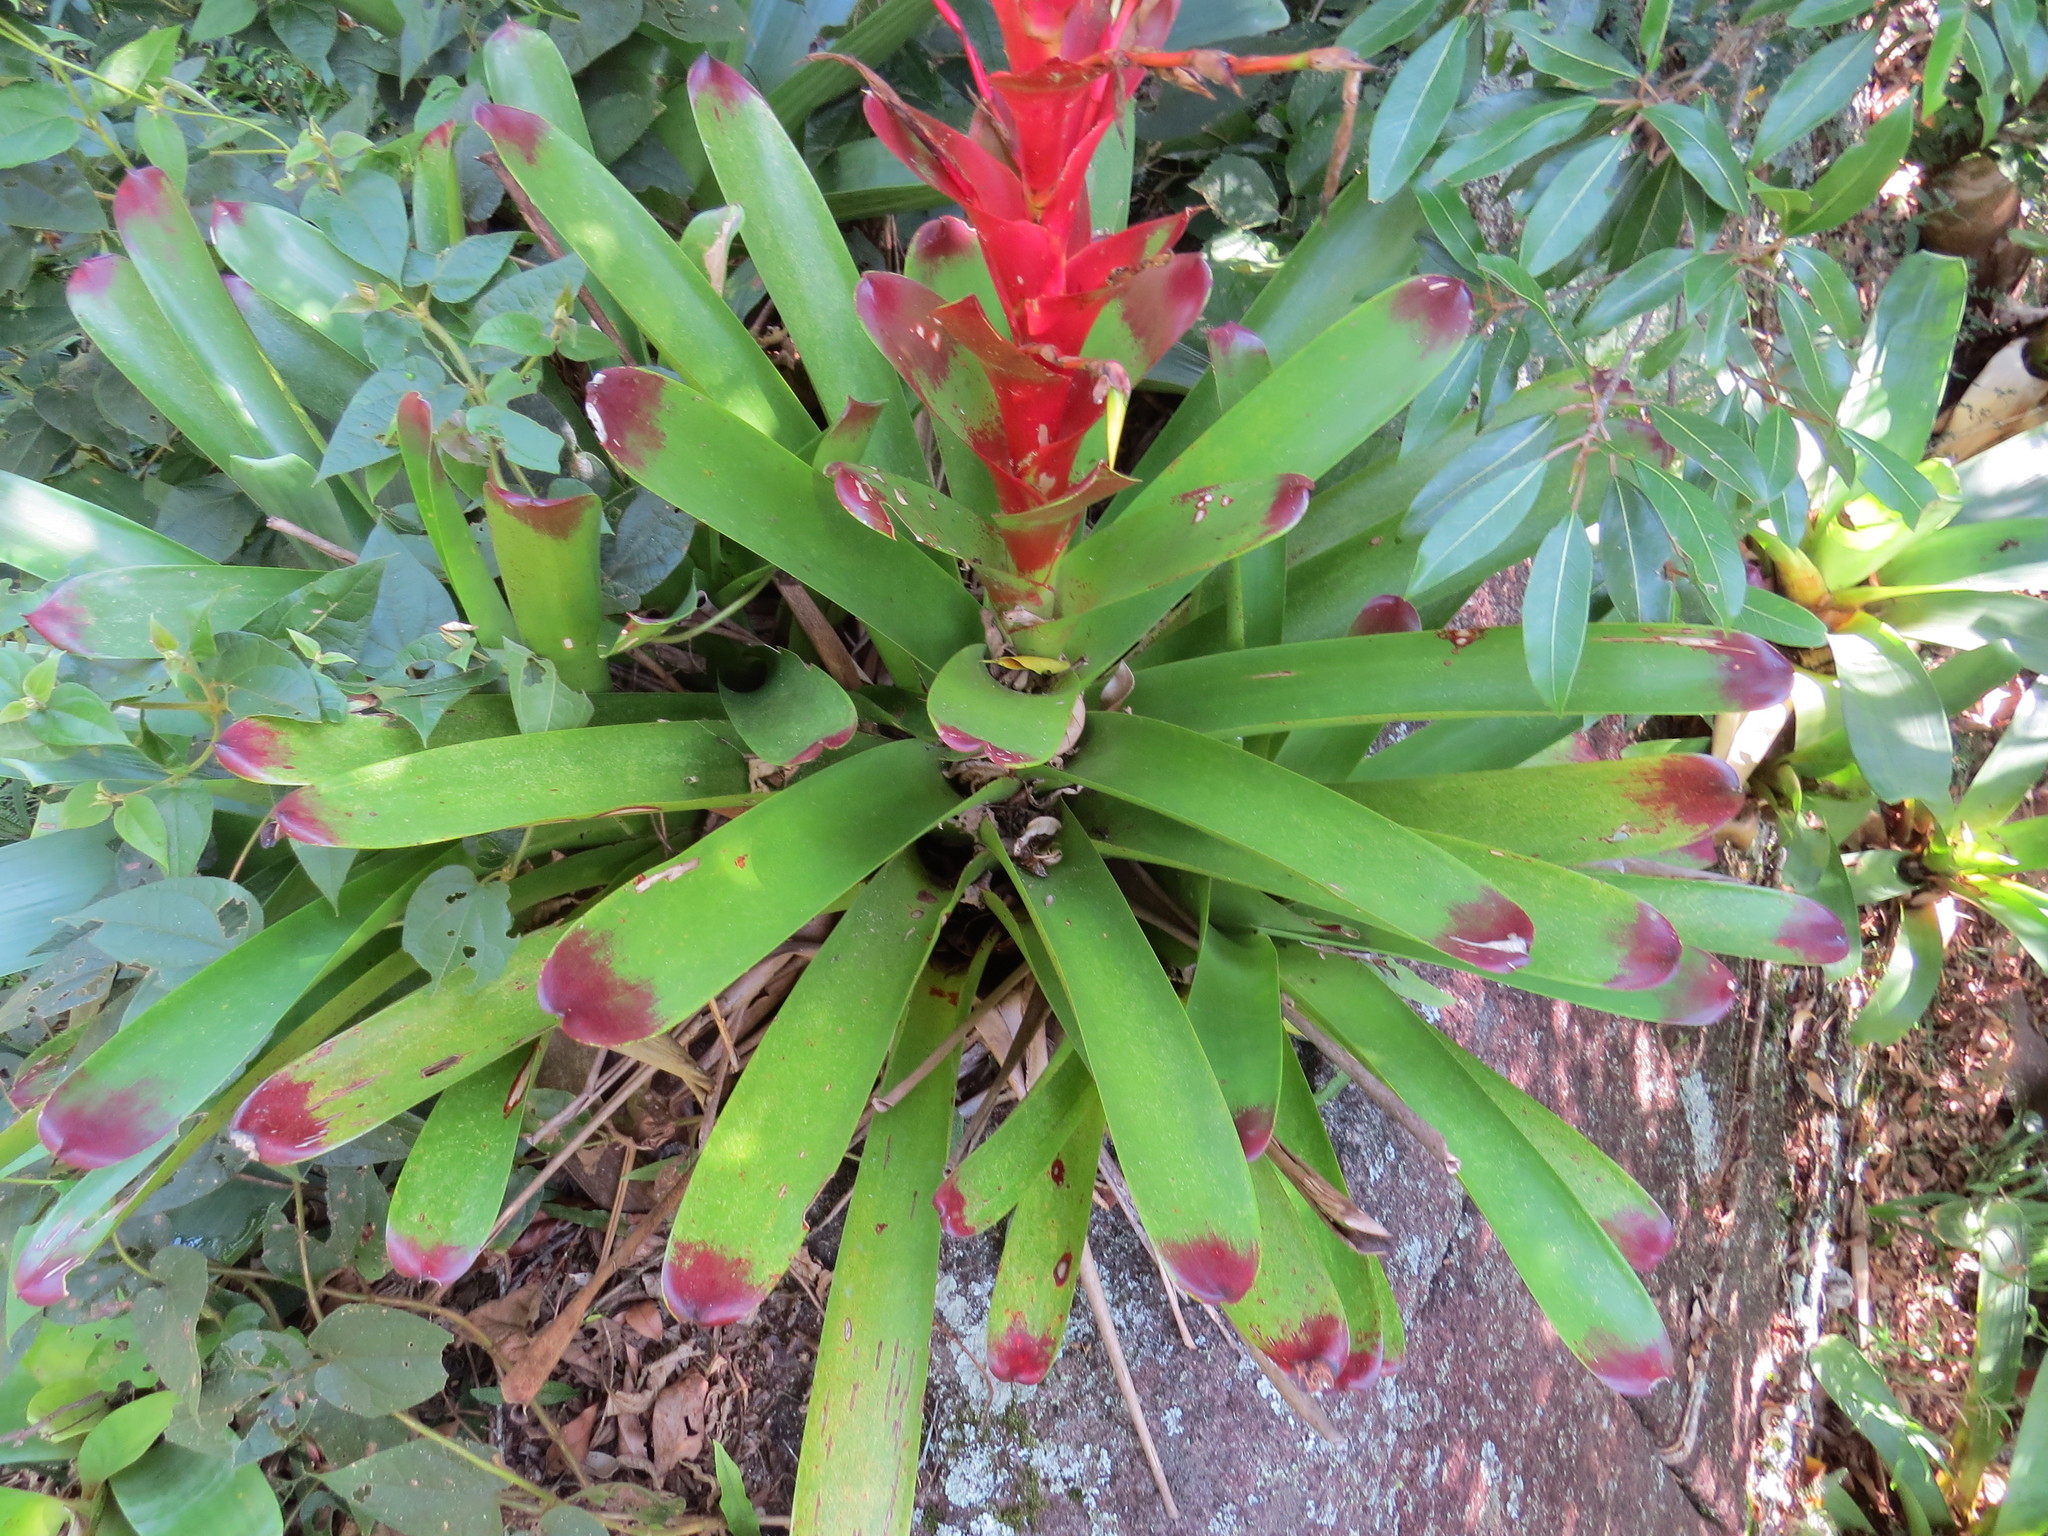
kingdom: Plantae
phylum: Tracheophyta
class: Liliopsida
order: Poales
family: Bromeliaceae
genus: Vriesea
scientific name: Vriesea philippocoburgi
